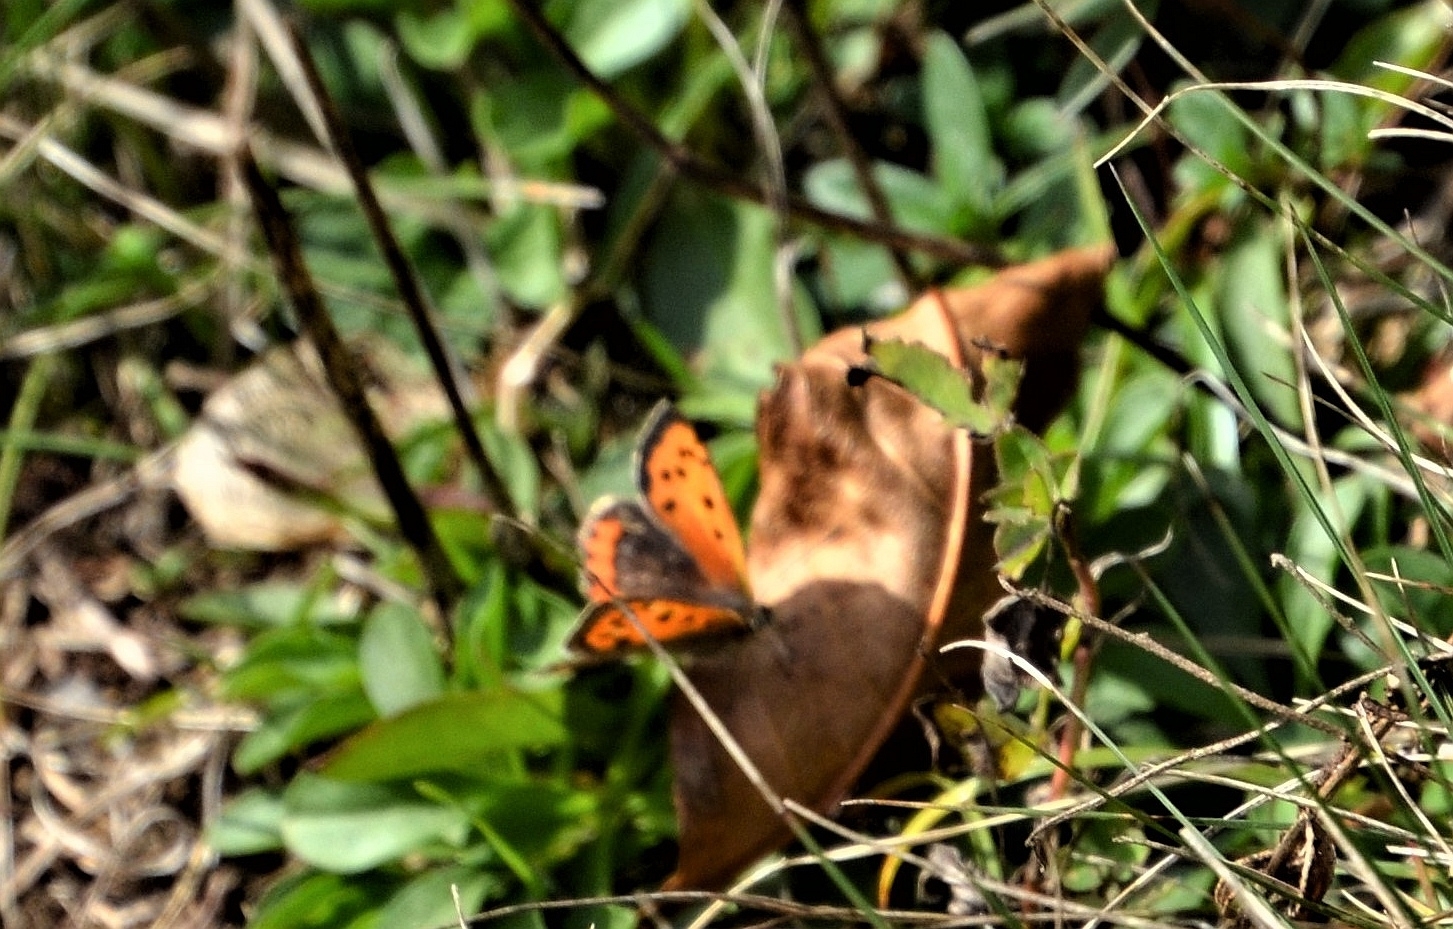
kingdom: Animalia
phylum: Arthropoda
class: Insecta
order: Lepidoptera
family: Lycaenidae
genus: Lycaena
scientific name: Lycaena phlaeas
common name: Small copper
